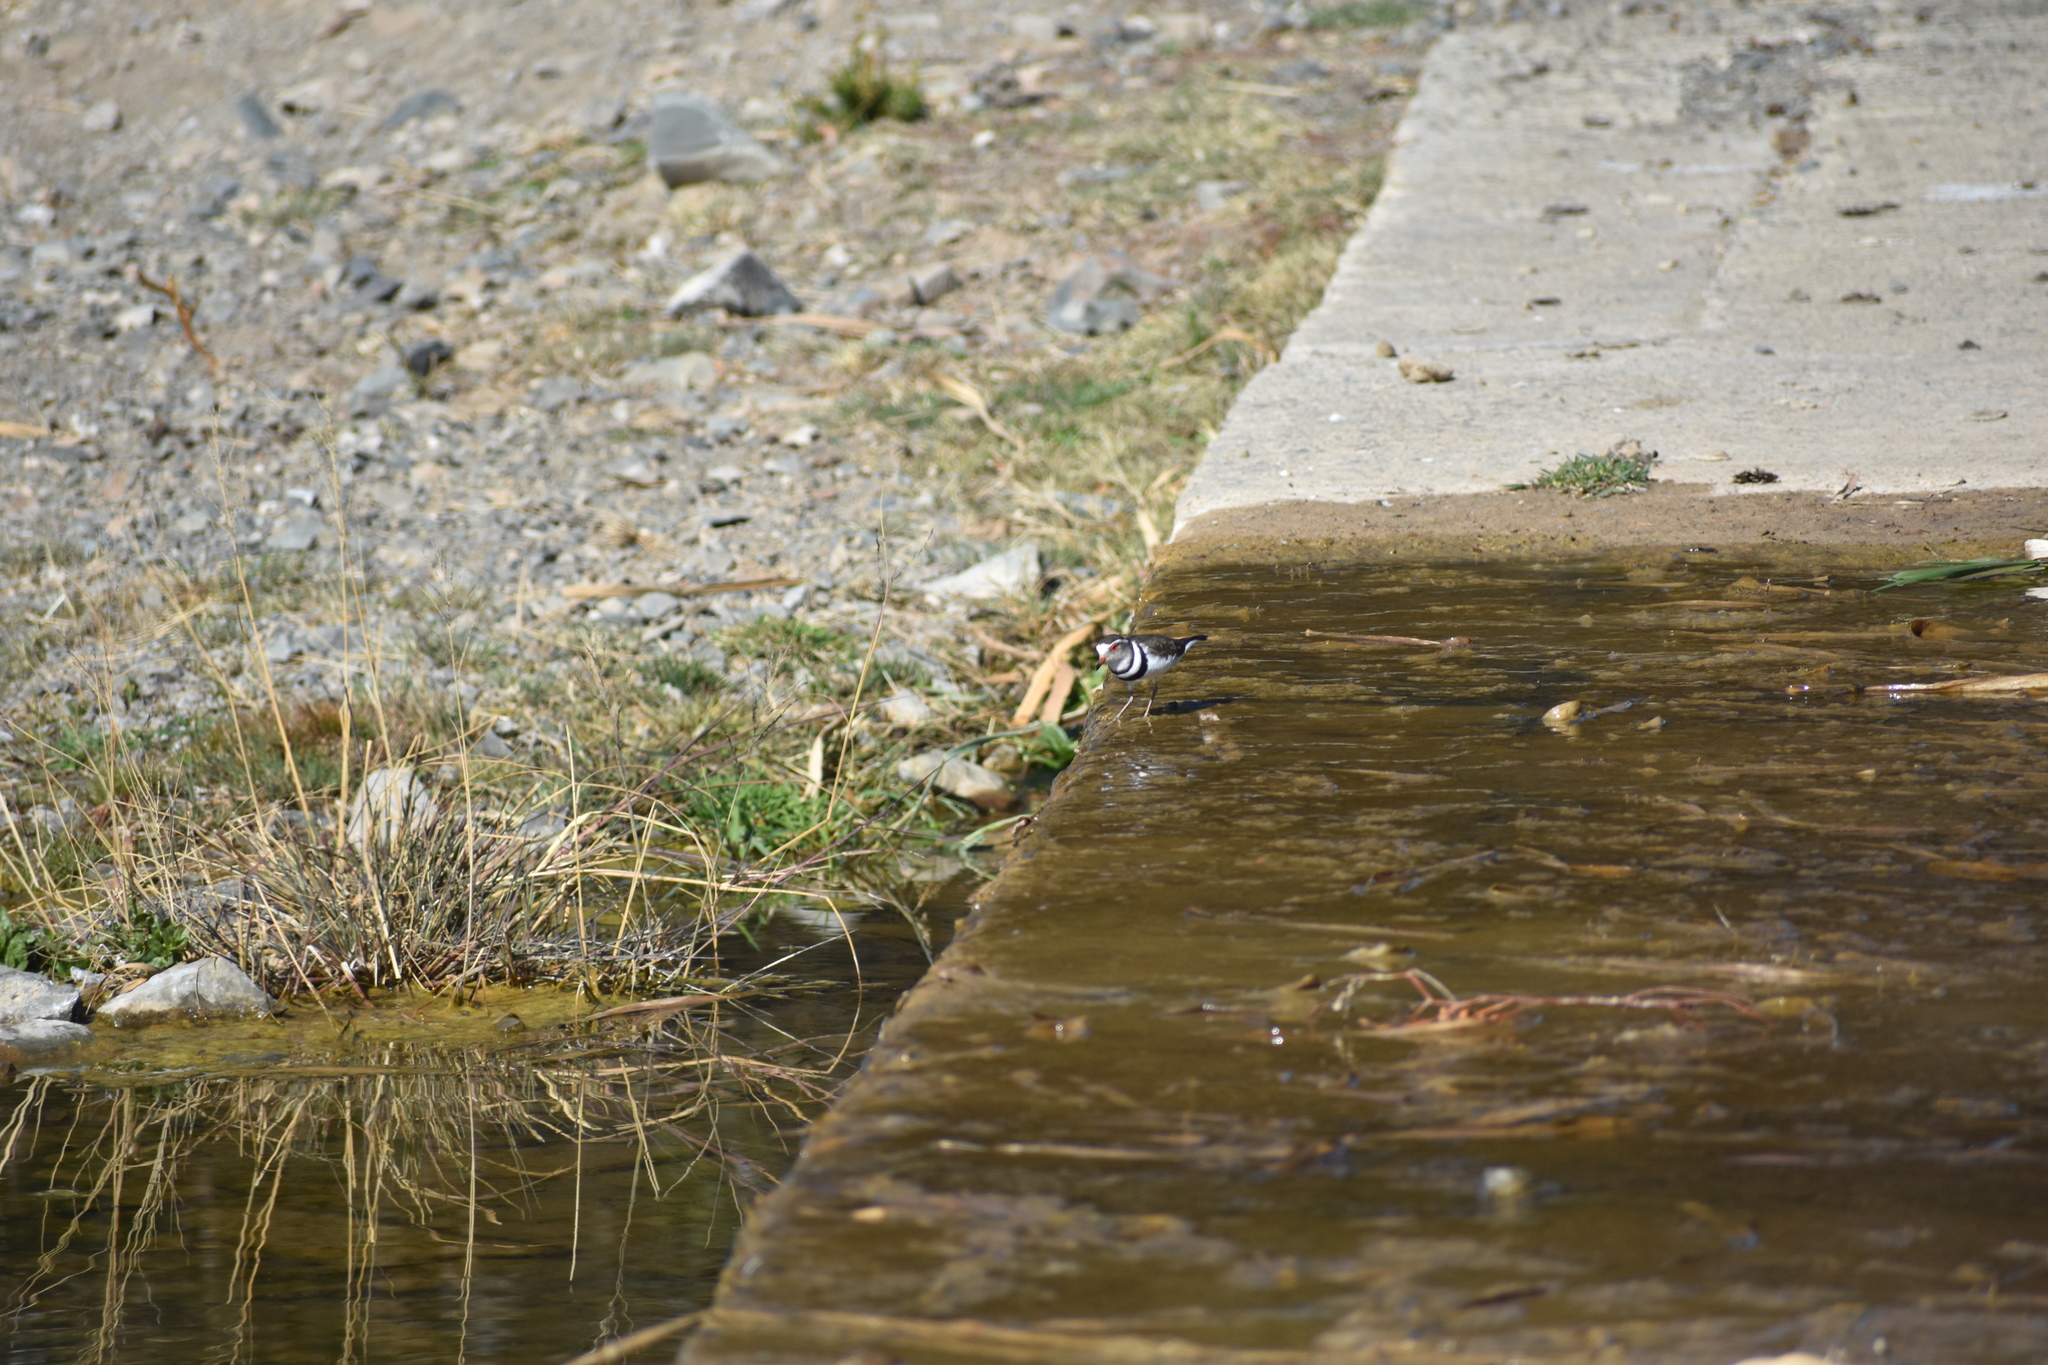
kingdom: Animalia
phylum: Chordata
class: Aves
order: Charadriiformes
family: Charadriidae
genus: Charadrius
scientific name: Charadrius tricollaris
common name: Three-banded plover
